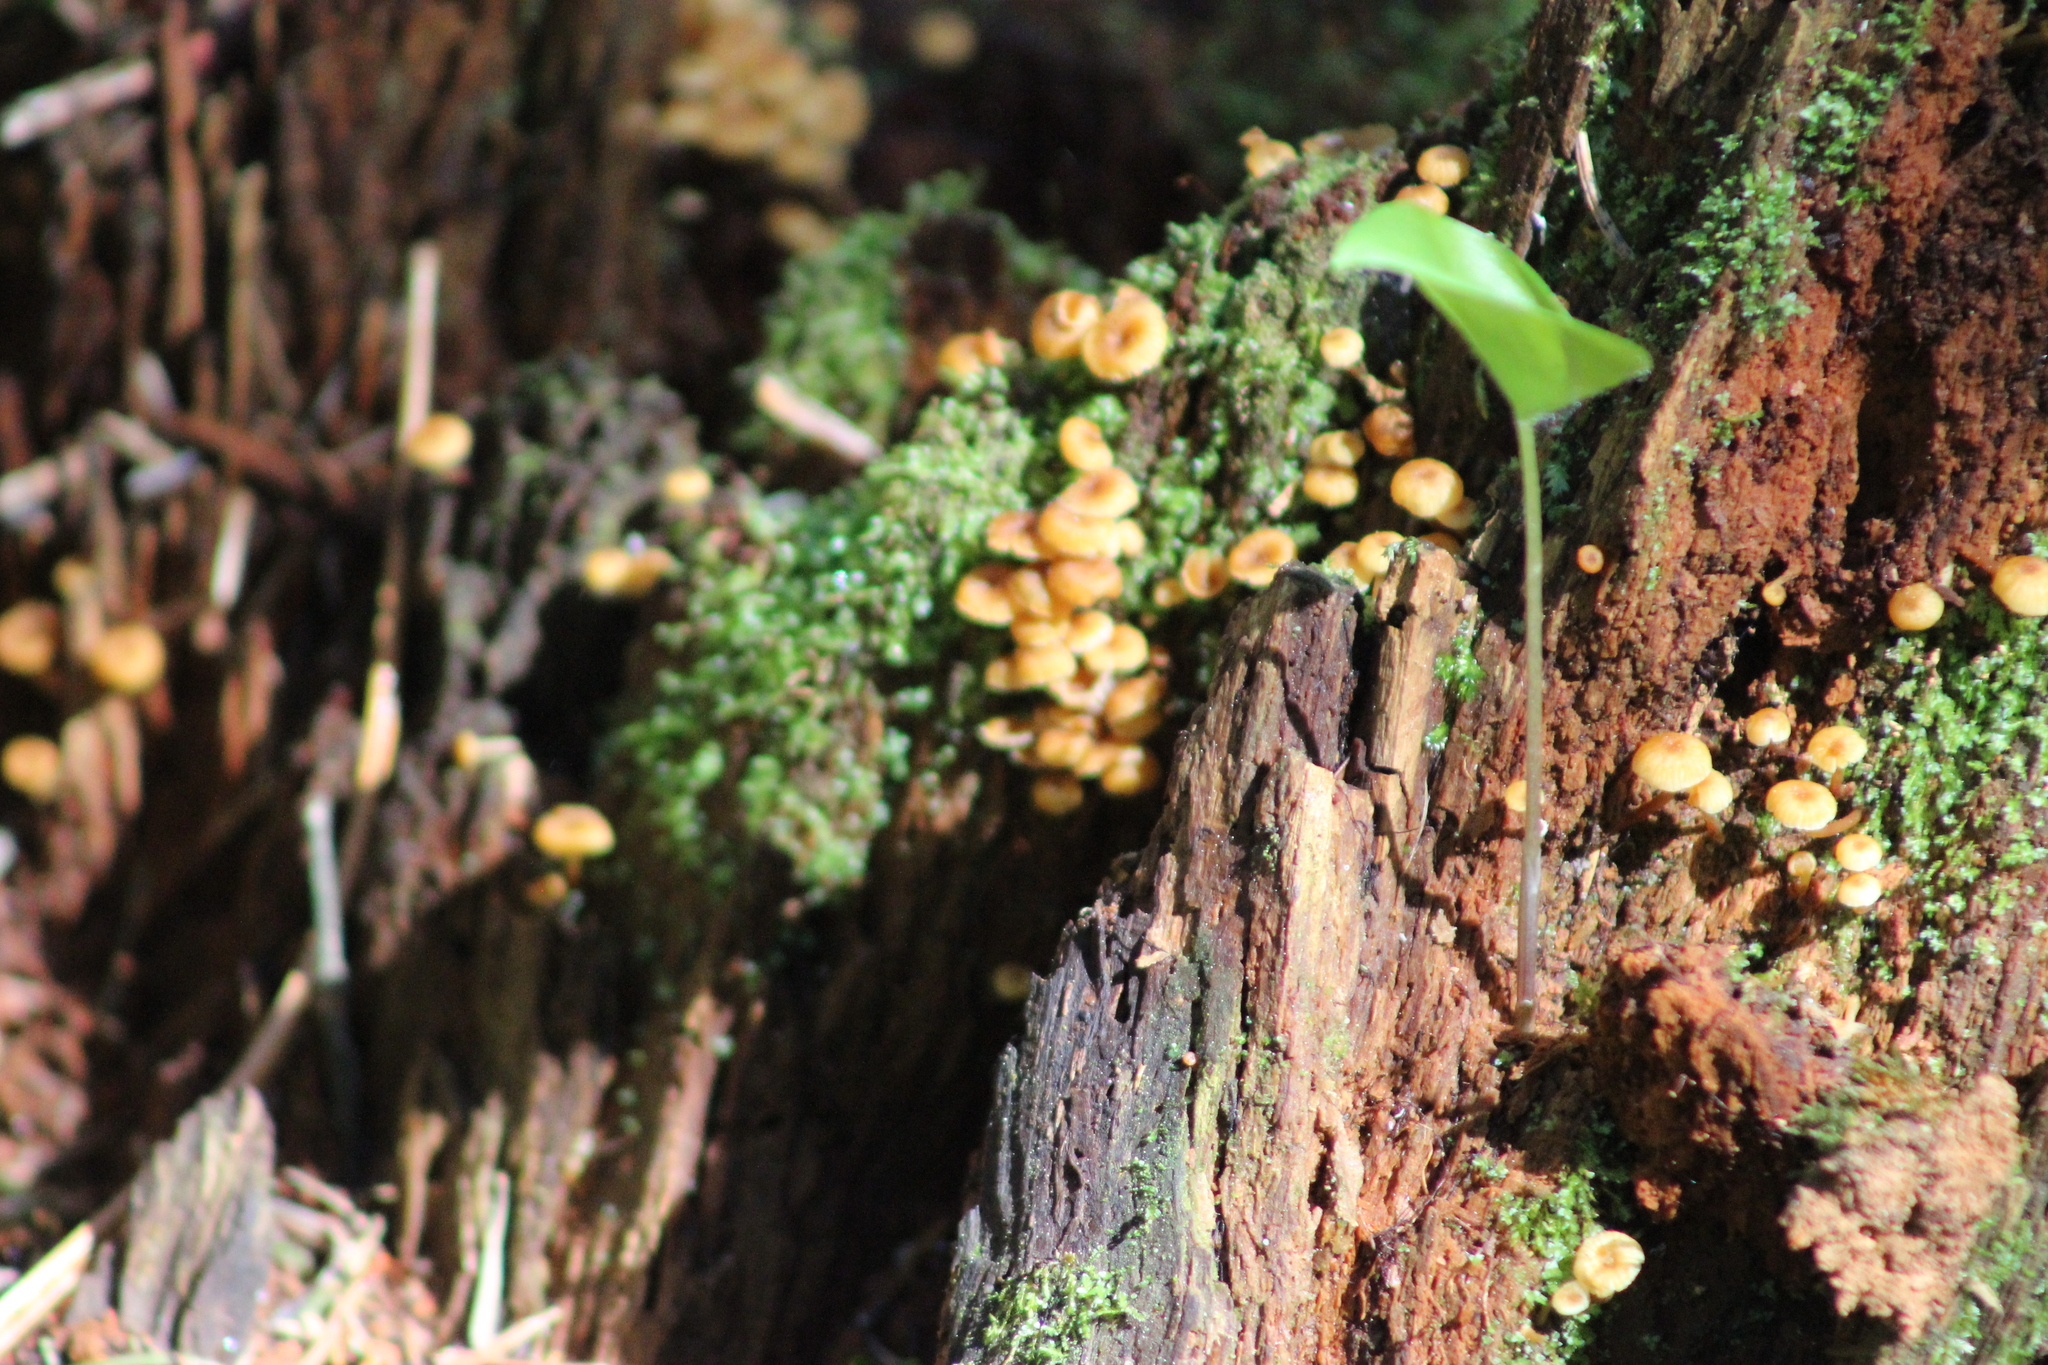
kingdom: Fungi
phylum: Basidiomycota
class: Agaricomycetes
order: Agaricales
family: Mycenaceae
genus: Xeromphalina
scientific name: Xeromphalina campanella
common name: Pinewood gingertail
